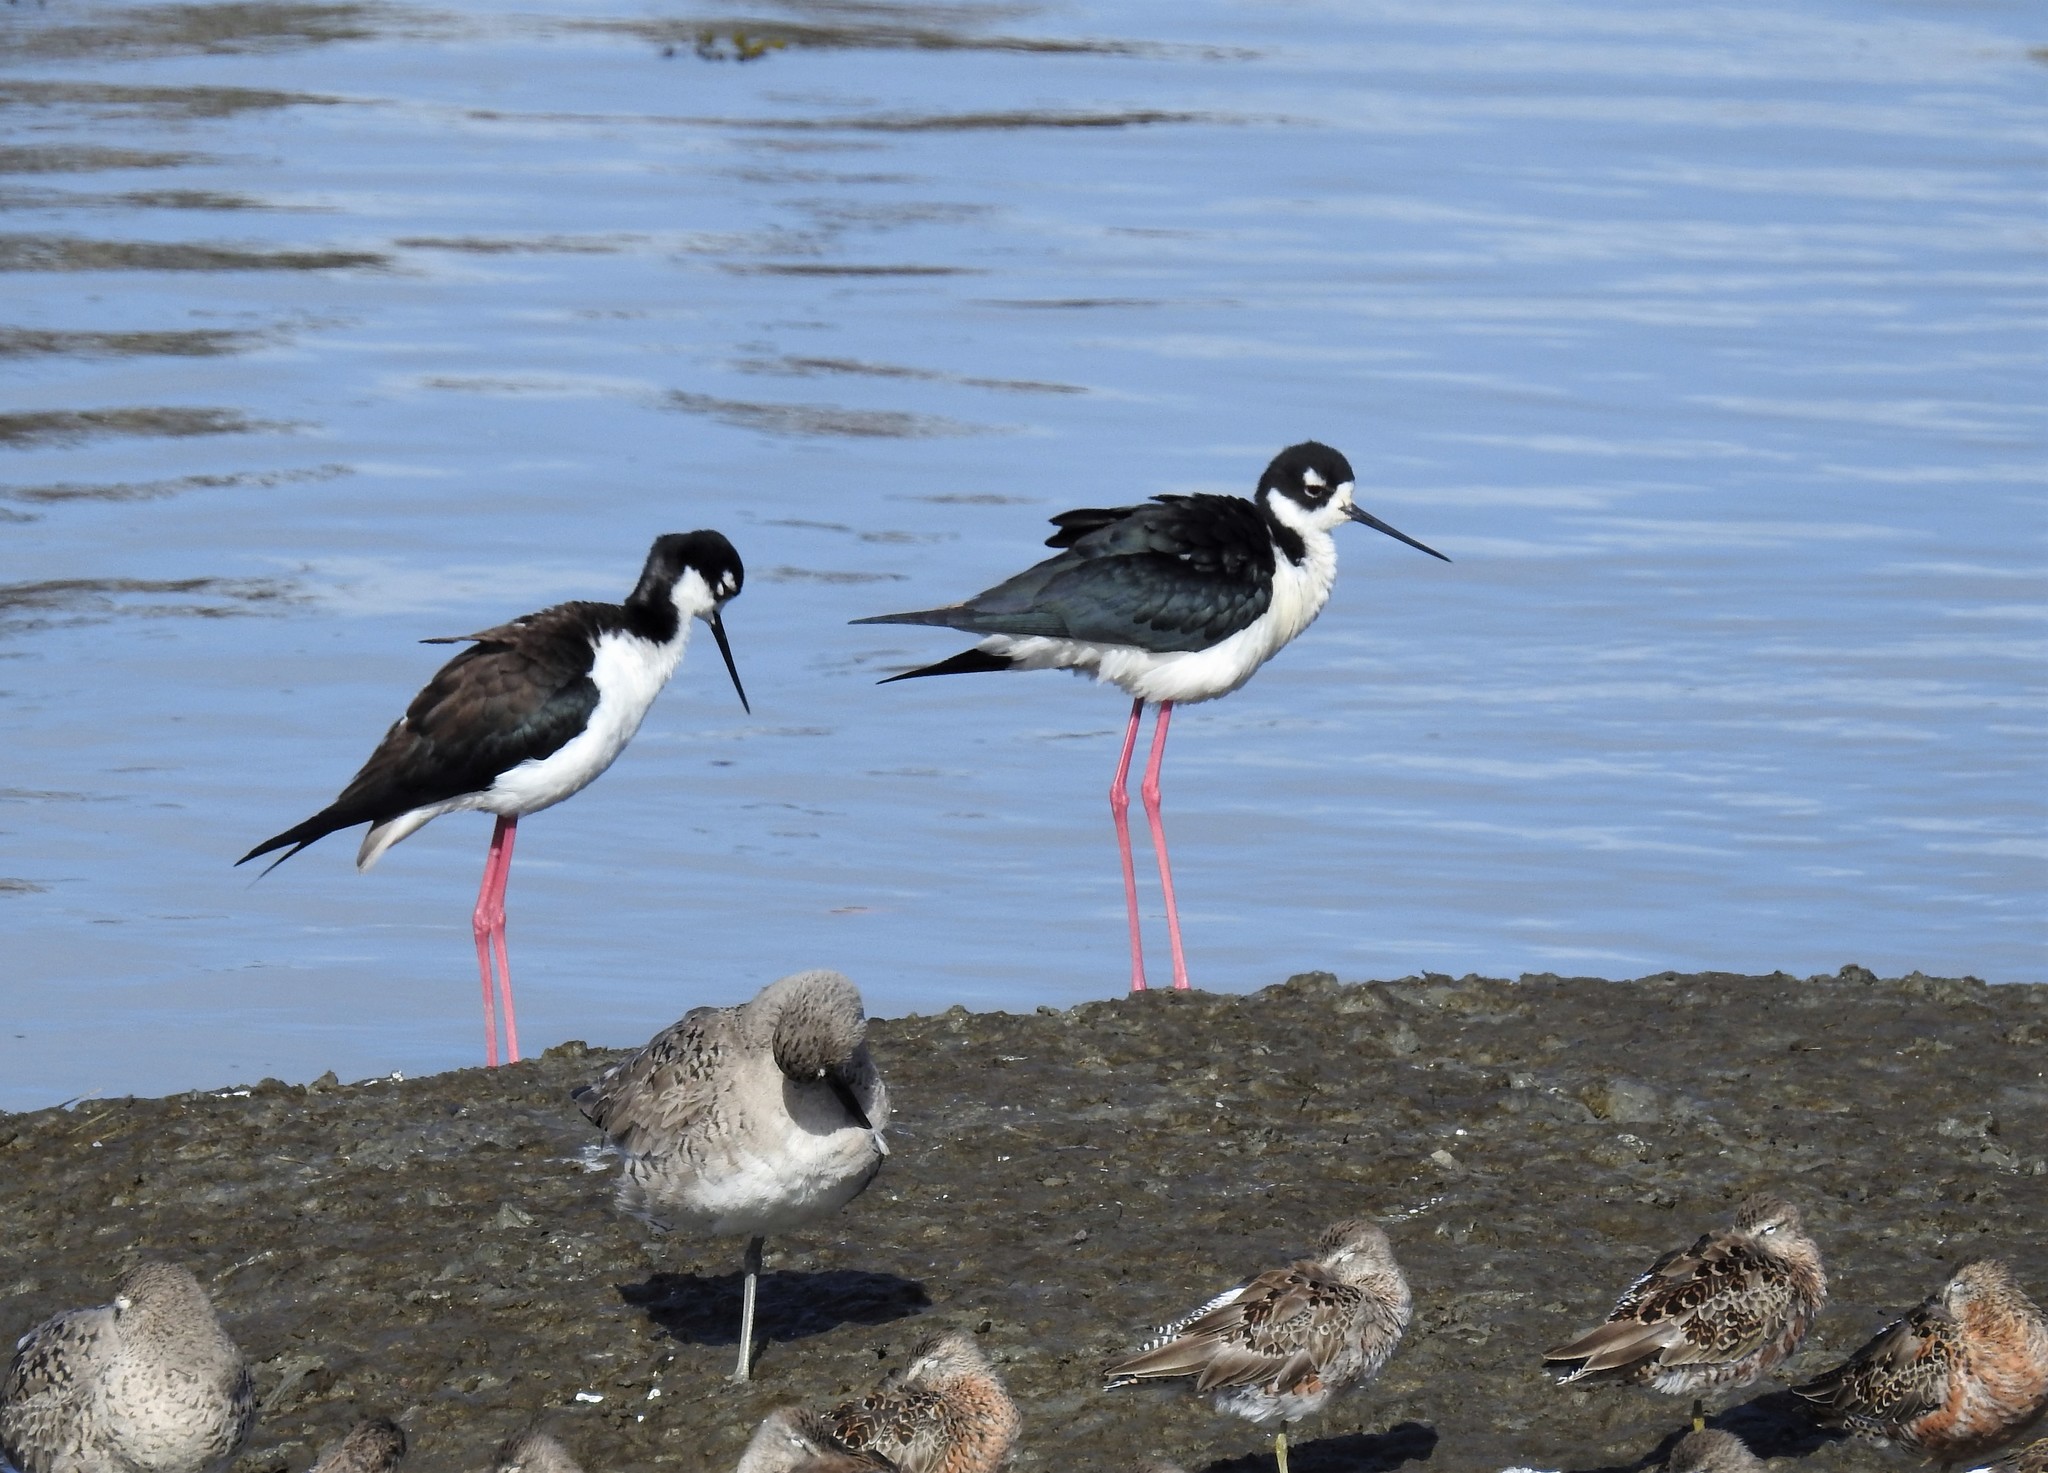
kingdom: Animalia
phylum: Chordata
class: Aves
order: Charadriiformes
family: Recurvirostridae
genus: Himantopus
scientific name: Himantopus mexicanus
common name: Black-necked stilt
